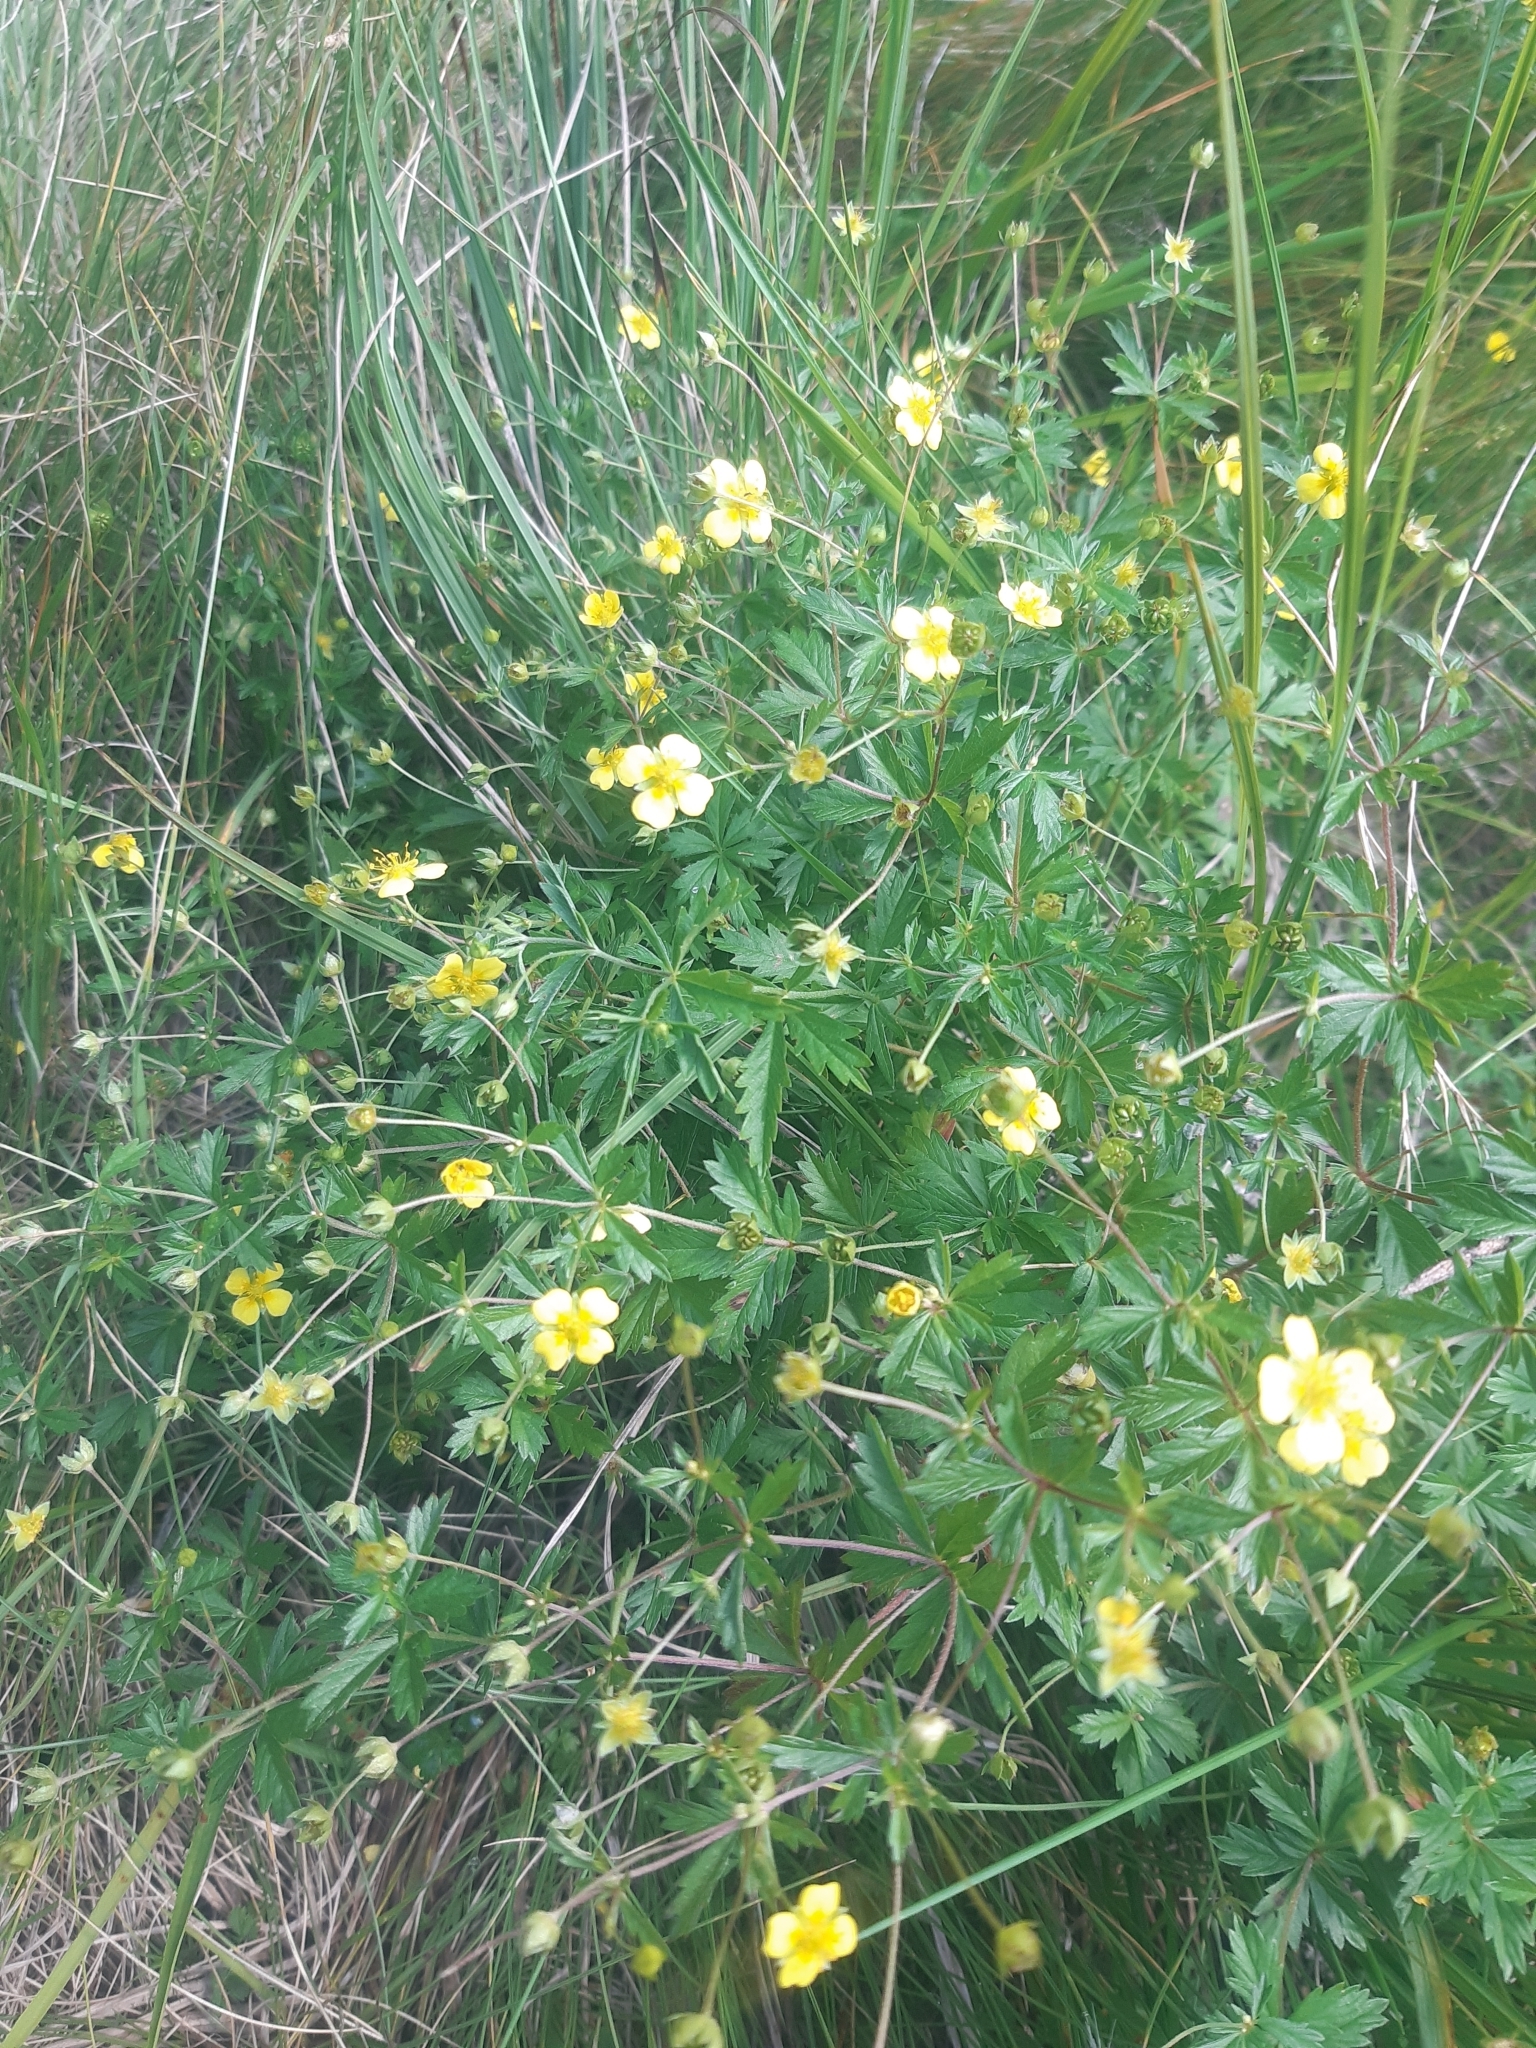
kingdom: Plantae
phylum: Tracheophyta
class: Magnoliopsida
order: Rosales
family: Rosaceae
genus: Potentilla
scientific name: Potentilla erecta
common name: Tormentil
